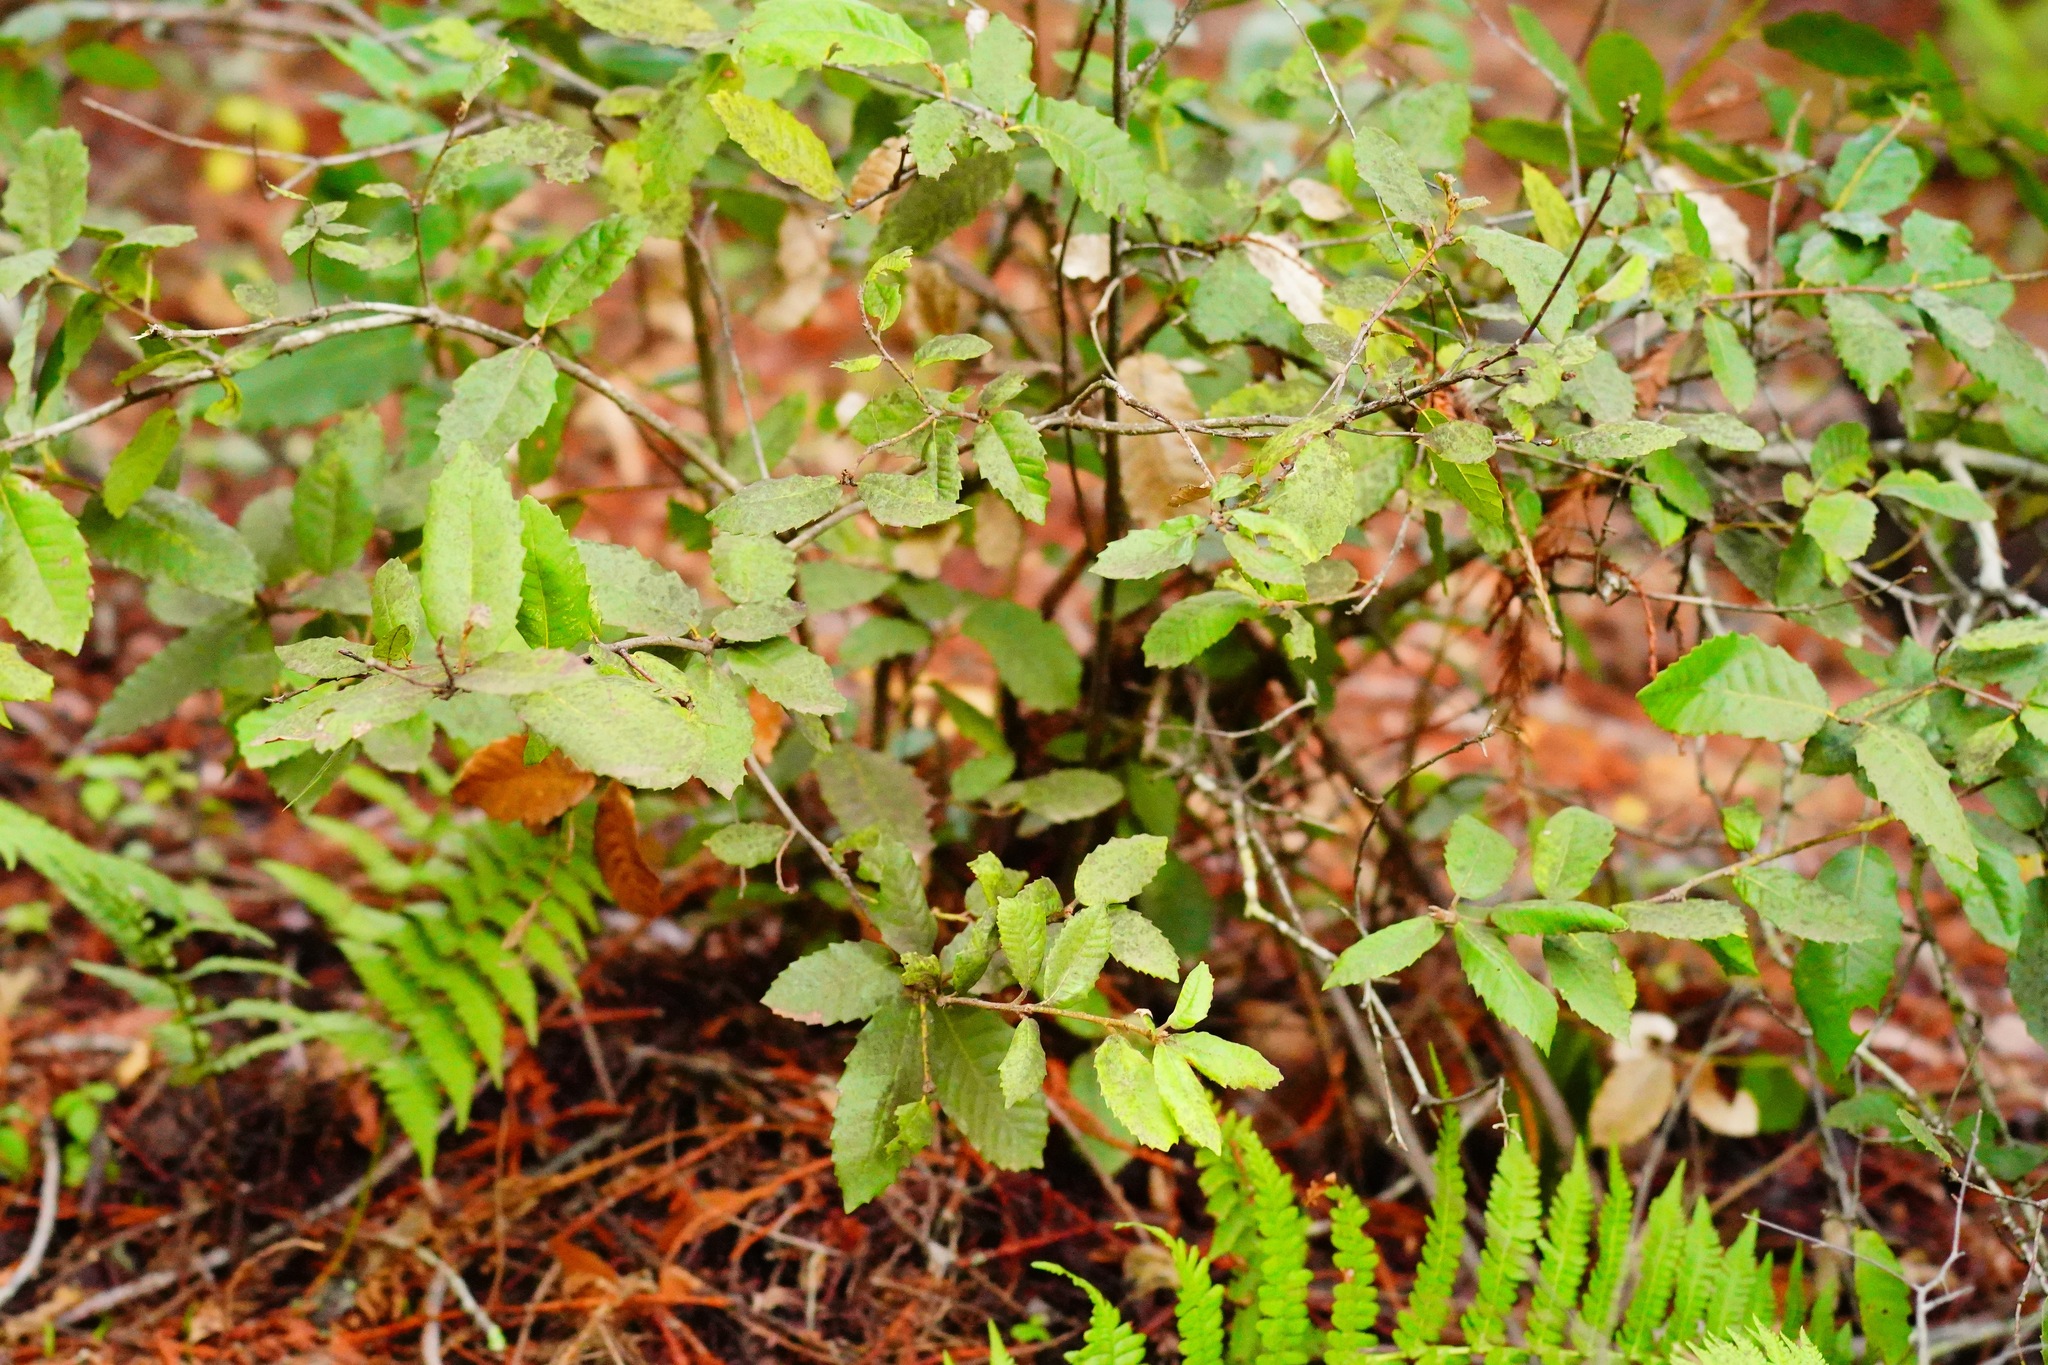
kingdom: Plantae
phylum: Tracheophyta
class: Magnoliopsida
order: Fagales
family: Fagaceae
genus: Notholithocarpus
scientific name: Notholithocarpus densiflorus
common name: Tan bark oak
